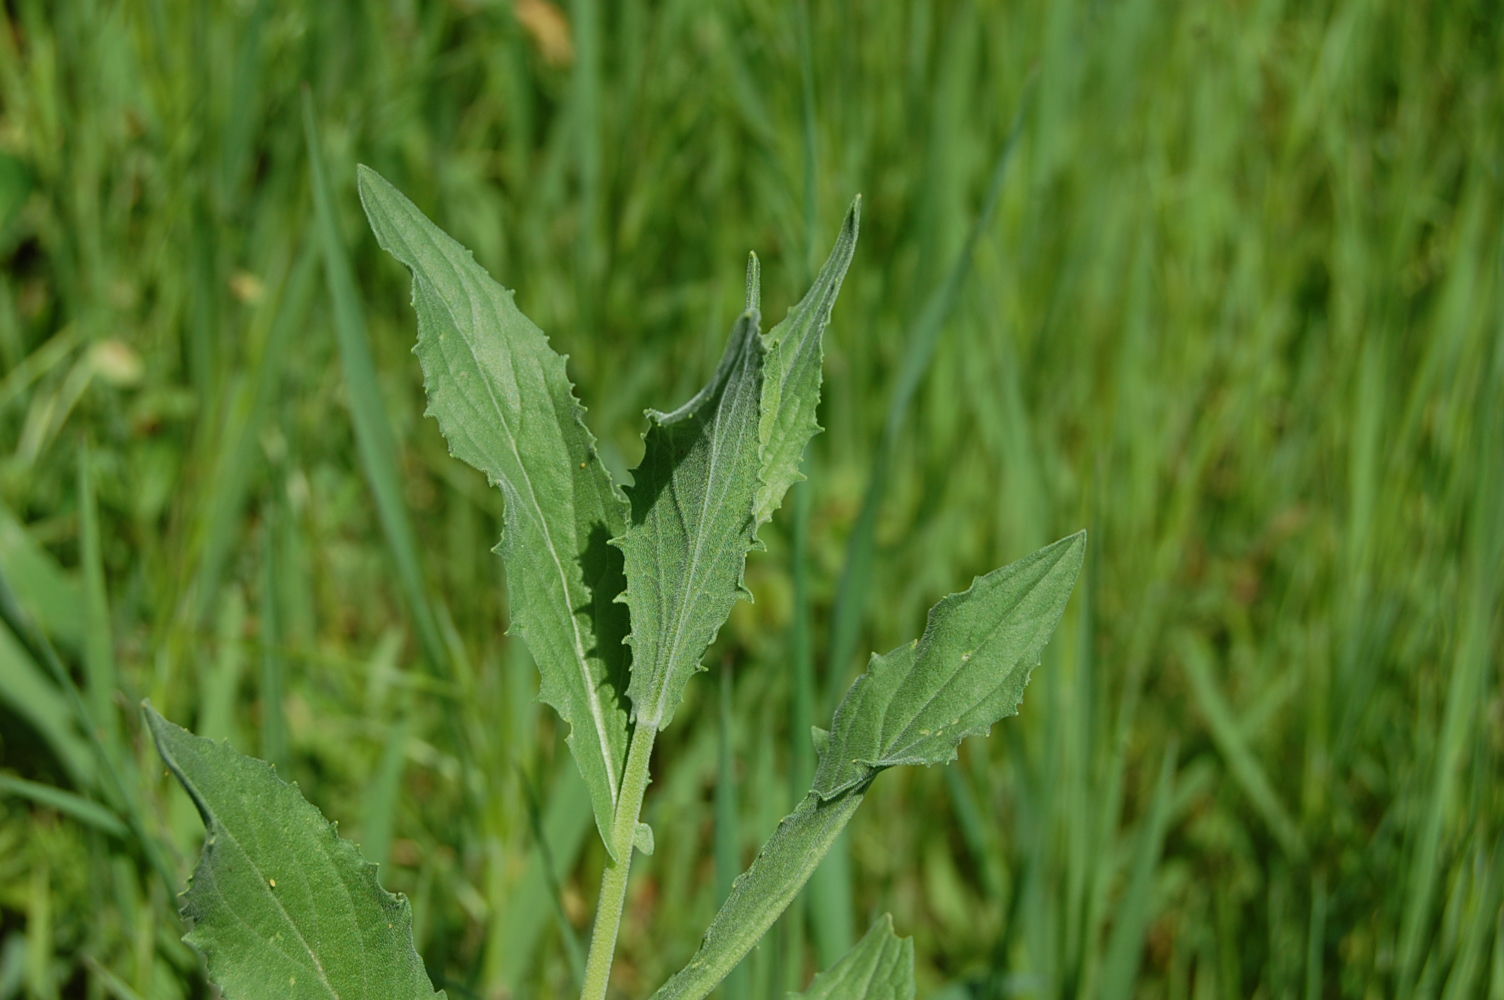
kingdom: Plantae
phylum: Tracheophyta
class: Magnoliopsida
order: Brassicales
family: Brassicaceae
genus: Lepidium
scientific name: Lepidium draba
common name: Hoary cress
